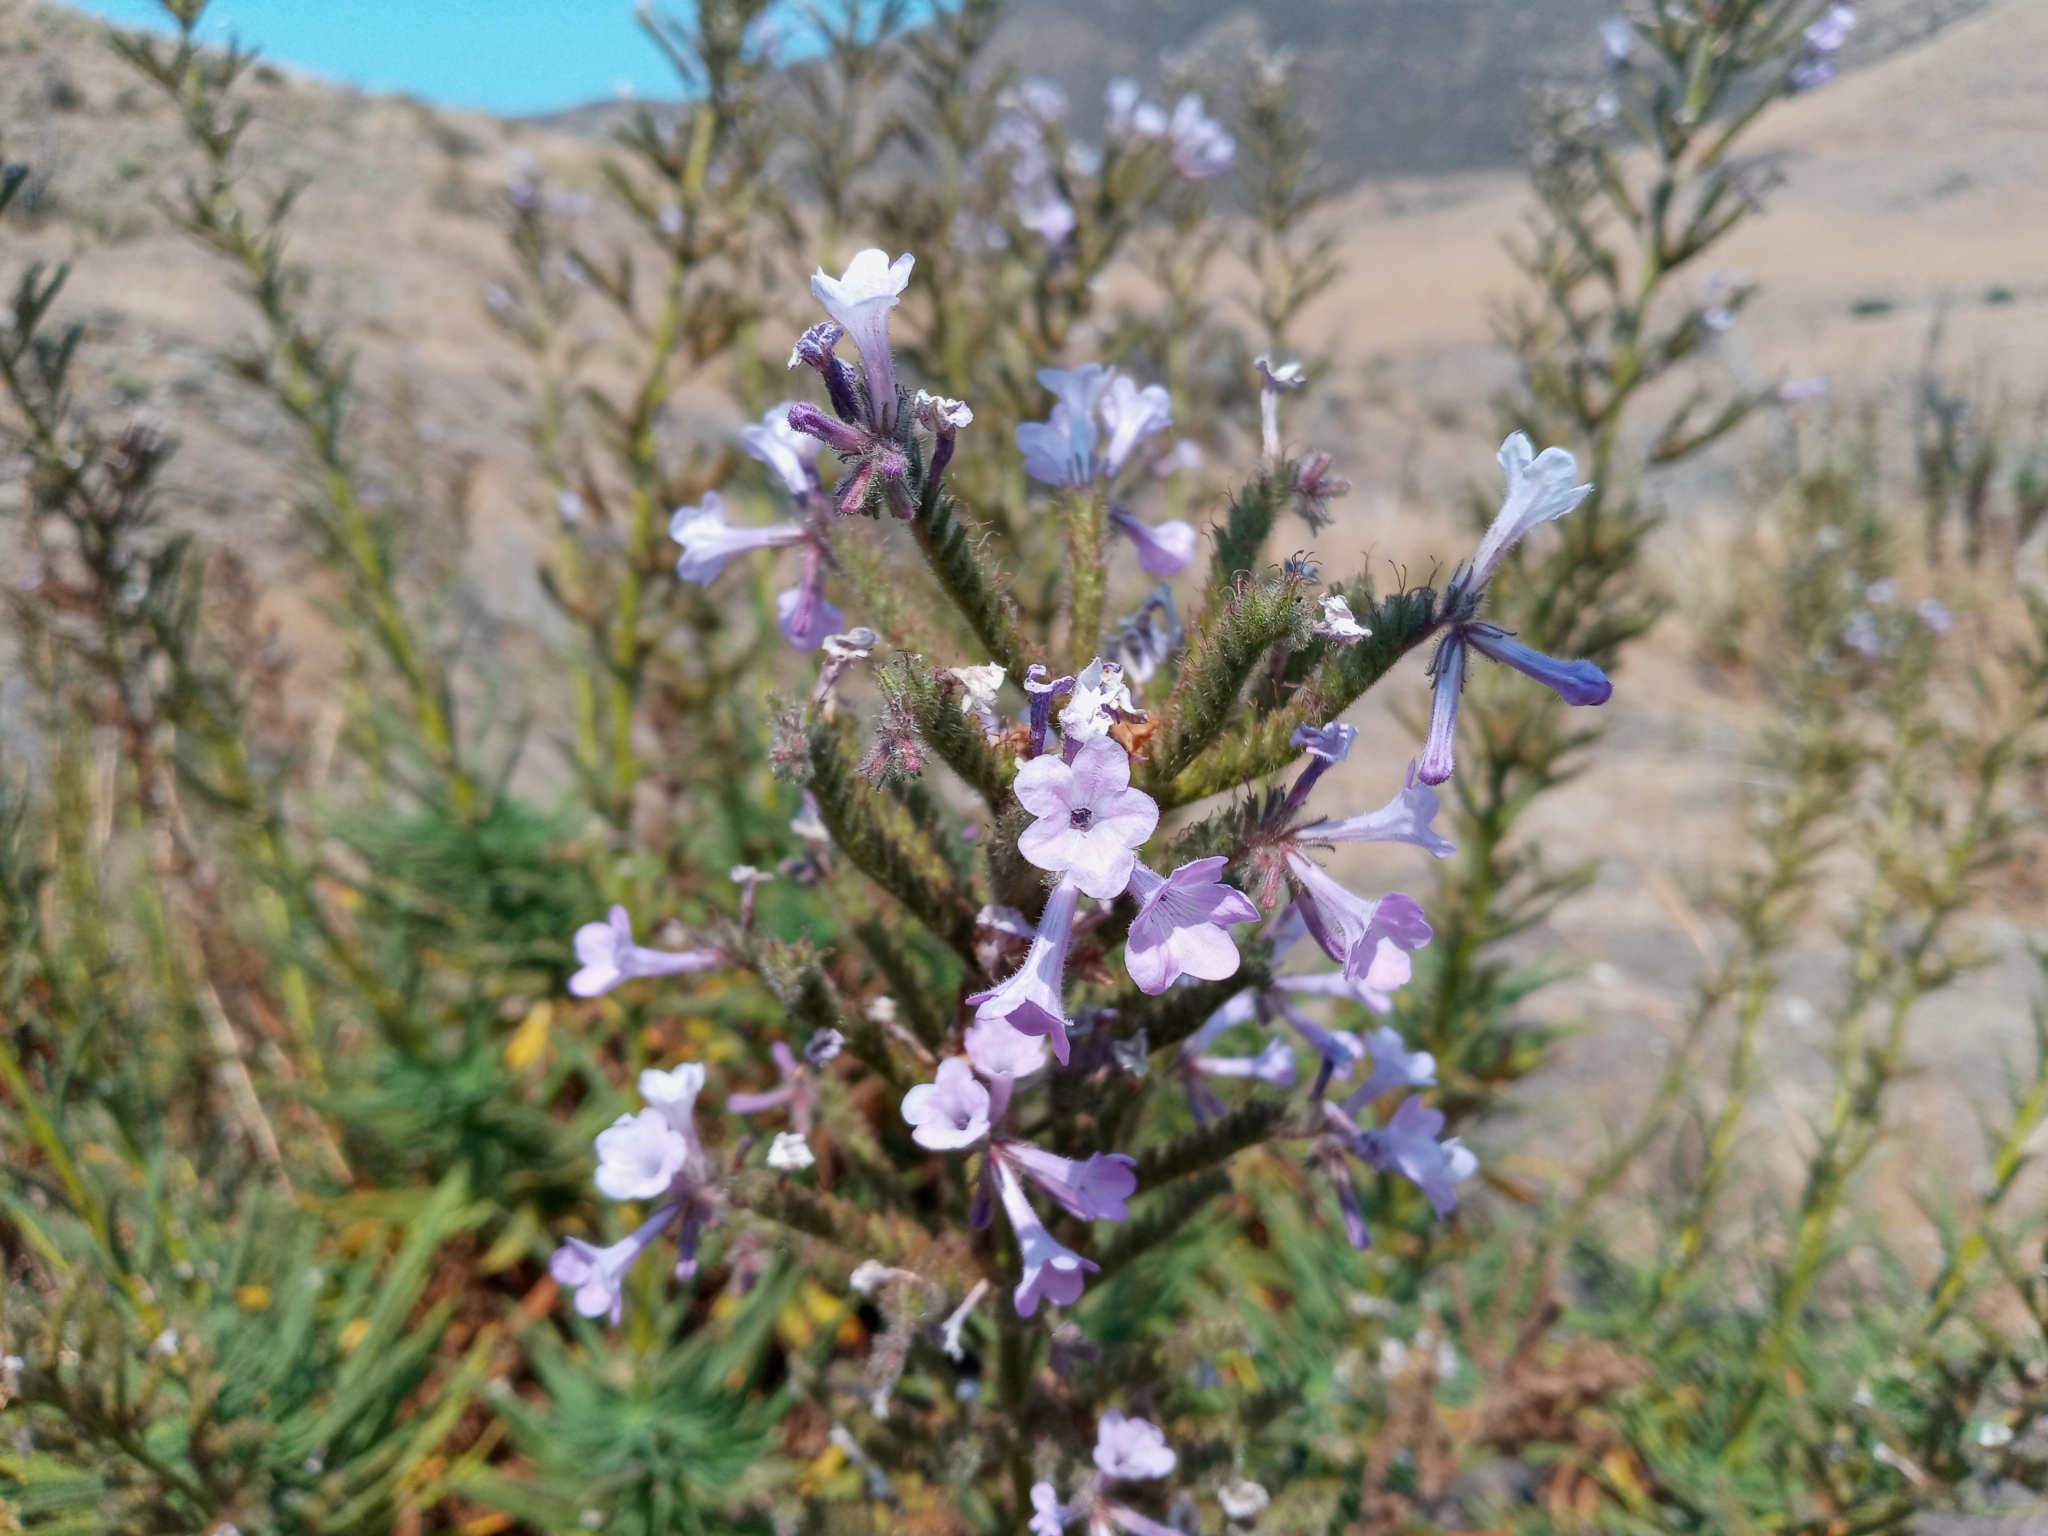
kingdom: Plantae
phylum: Tracheophyta
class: Magnoliopsida
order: Boraginales
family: Namaceae
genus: Turricula
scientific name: Turricula parryi
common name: Poodle-dog-bush
